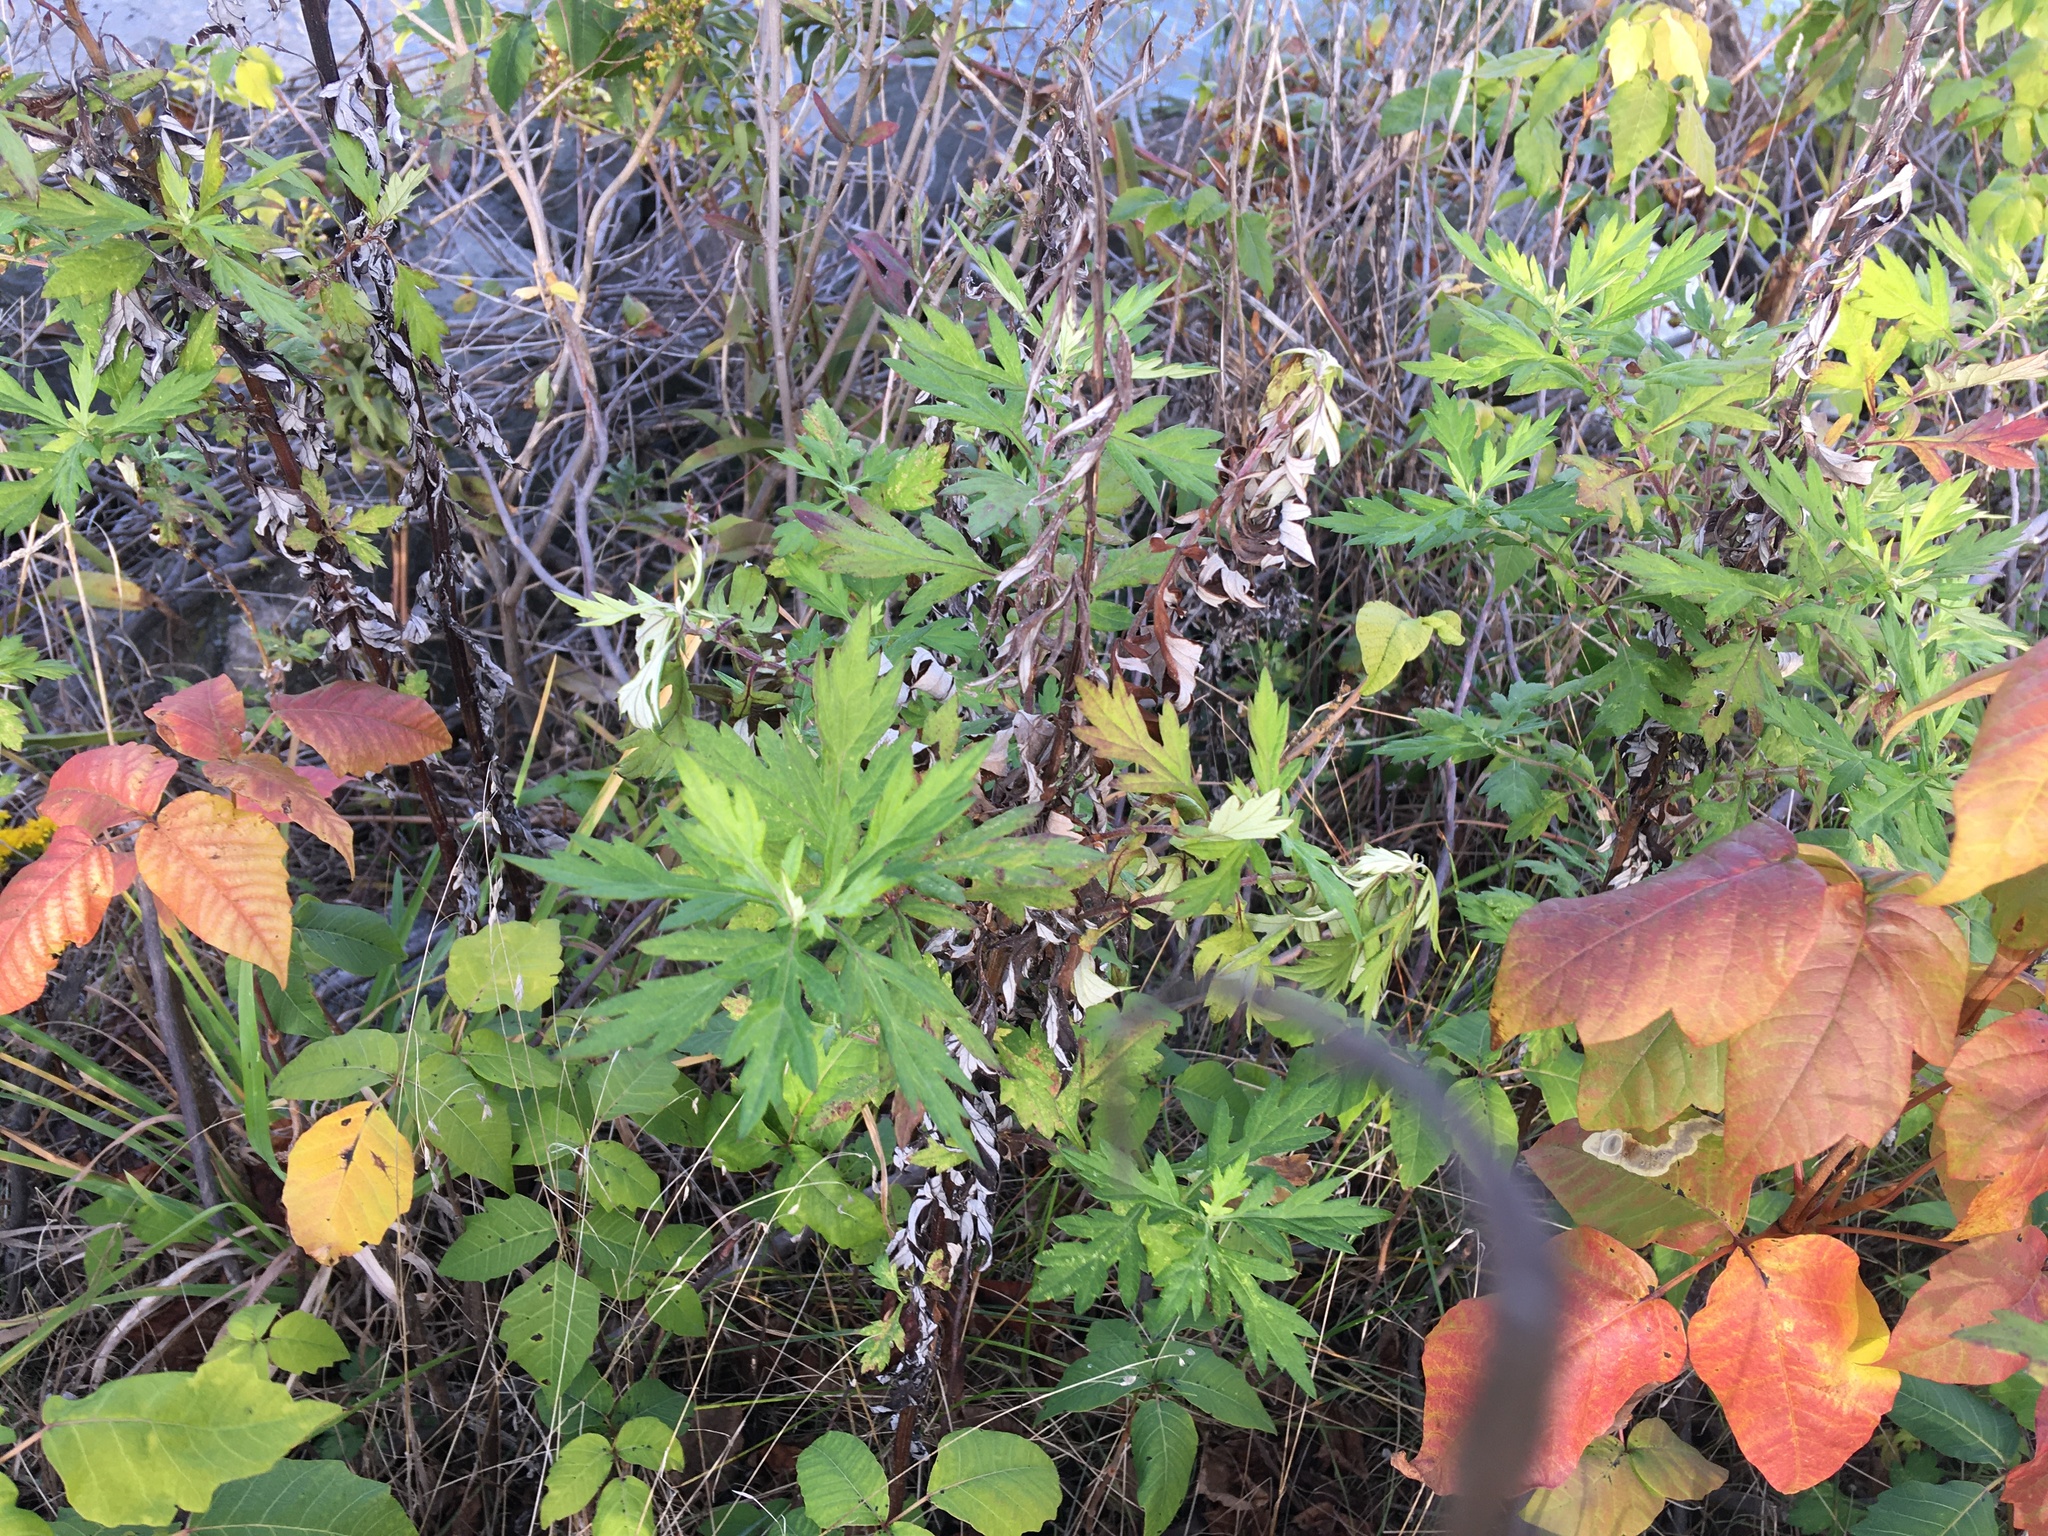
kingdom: Plantae
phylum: Tracheophyta
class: Magnoliopsida
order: Asterales
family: Asteraceae
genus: Artemisia
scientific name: Artemisia vulgaris
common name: Mugwort
